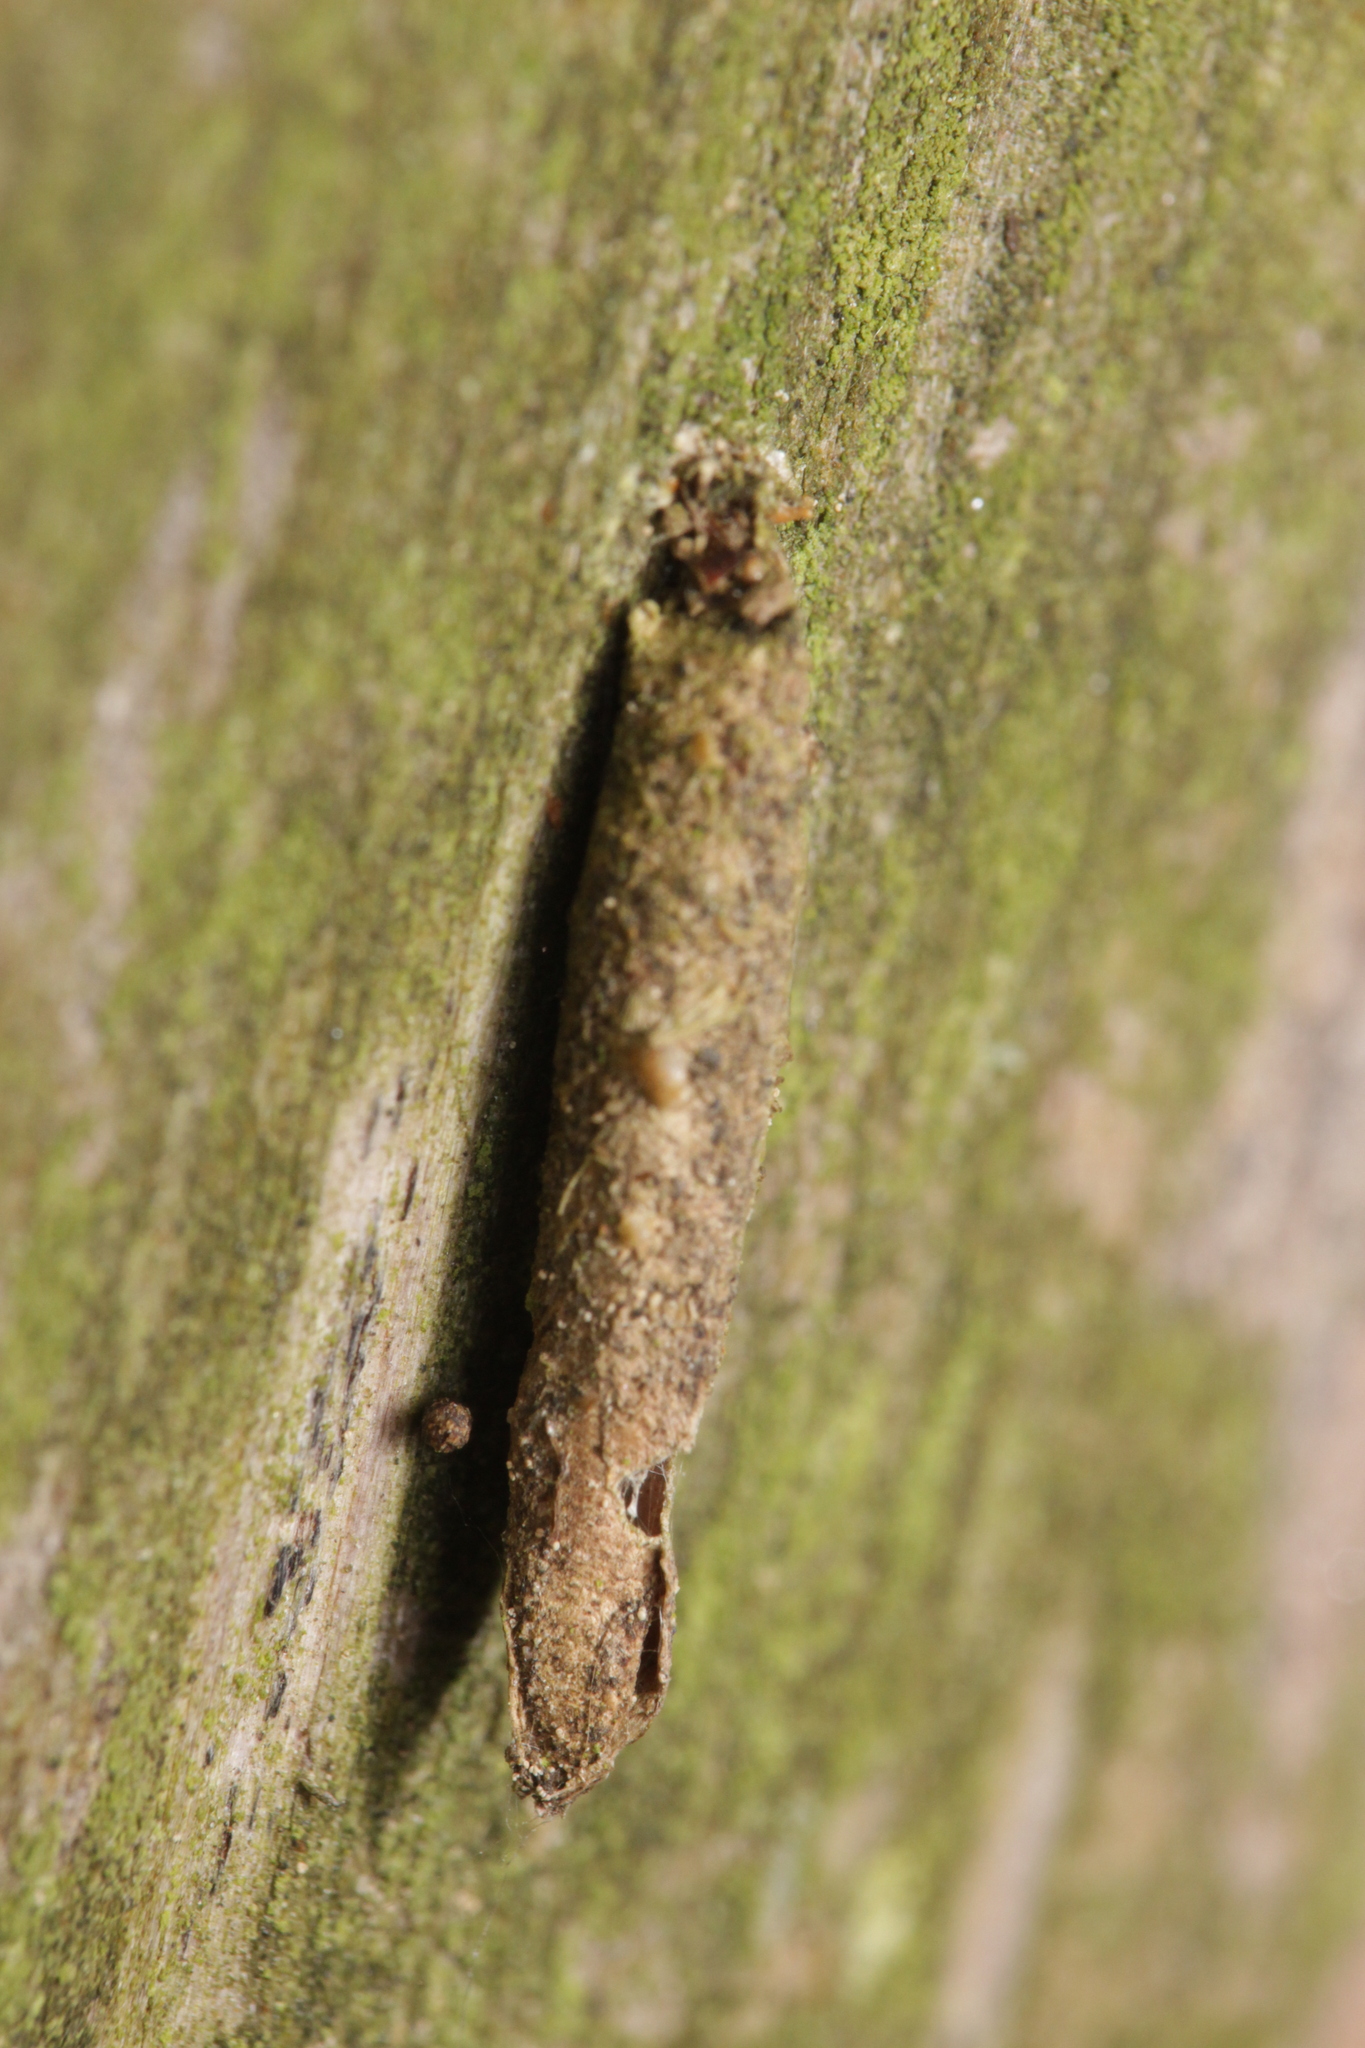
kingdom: Animalia
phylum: Arthropoda
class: Insecta
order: Lepidoptera
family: Psychidae
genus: Taleporia
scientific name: Taleporia tubulosa
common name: Brown smoke
